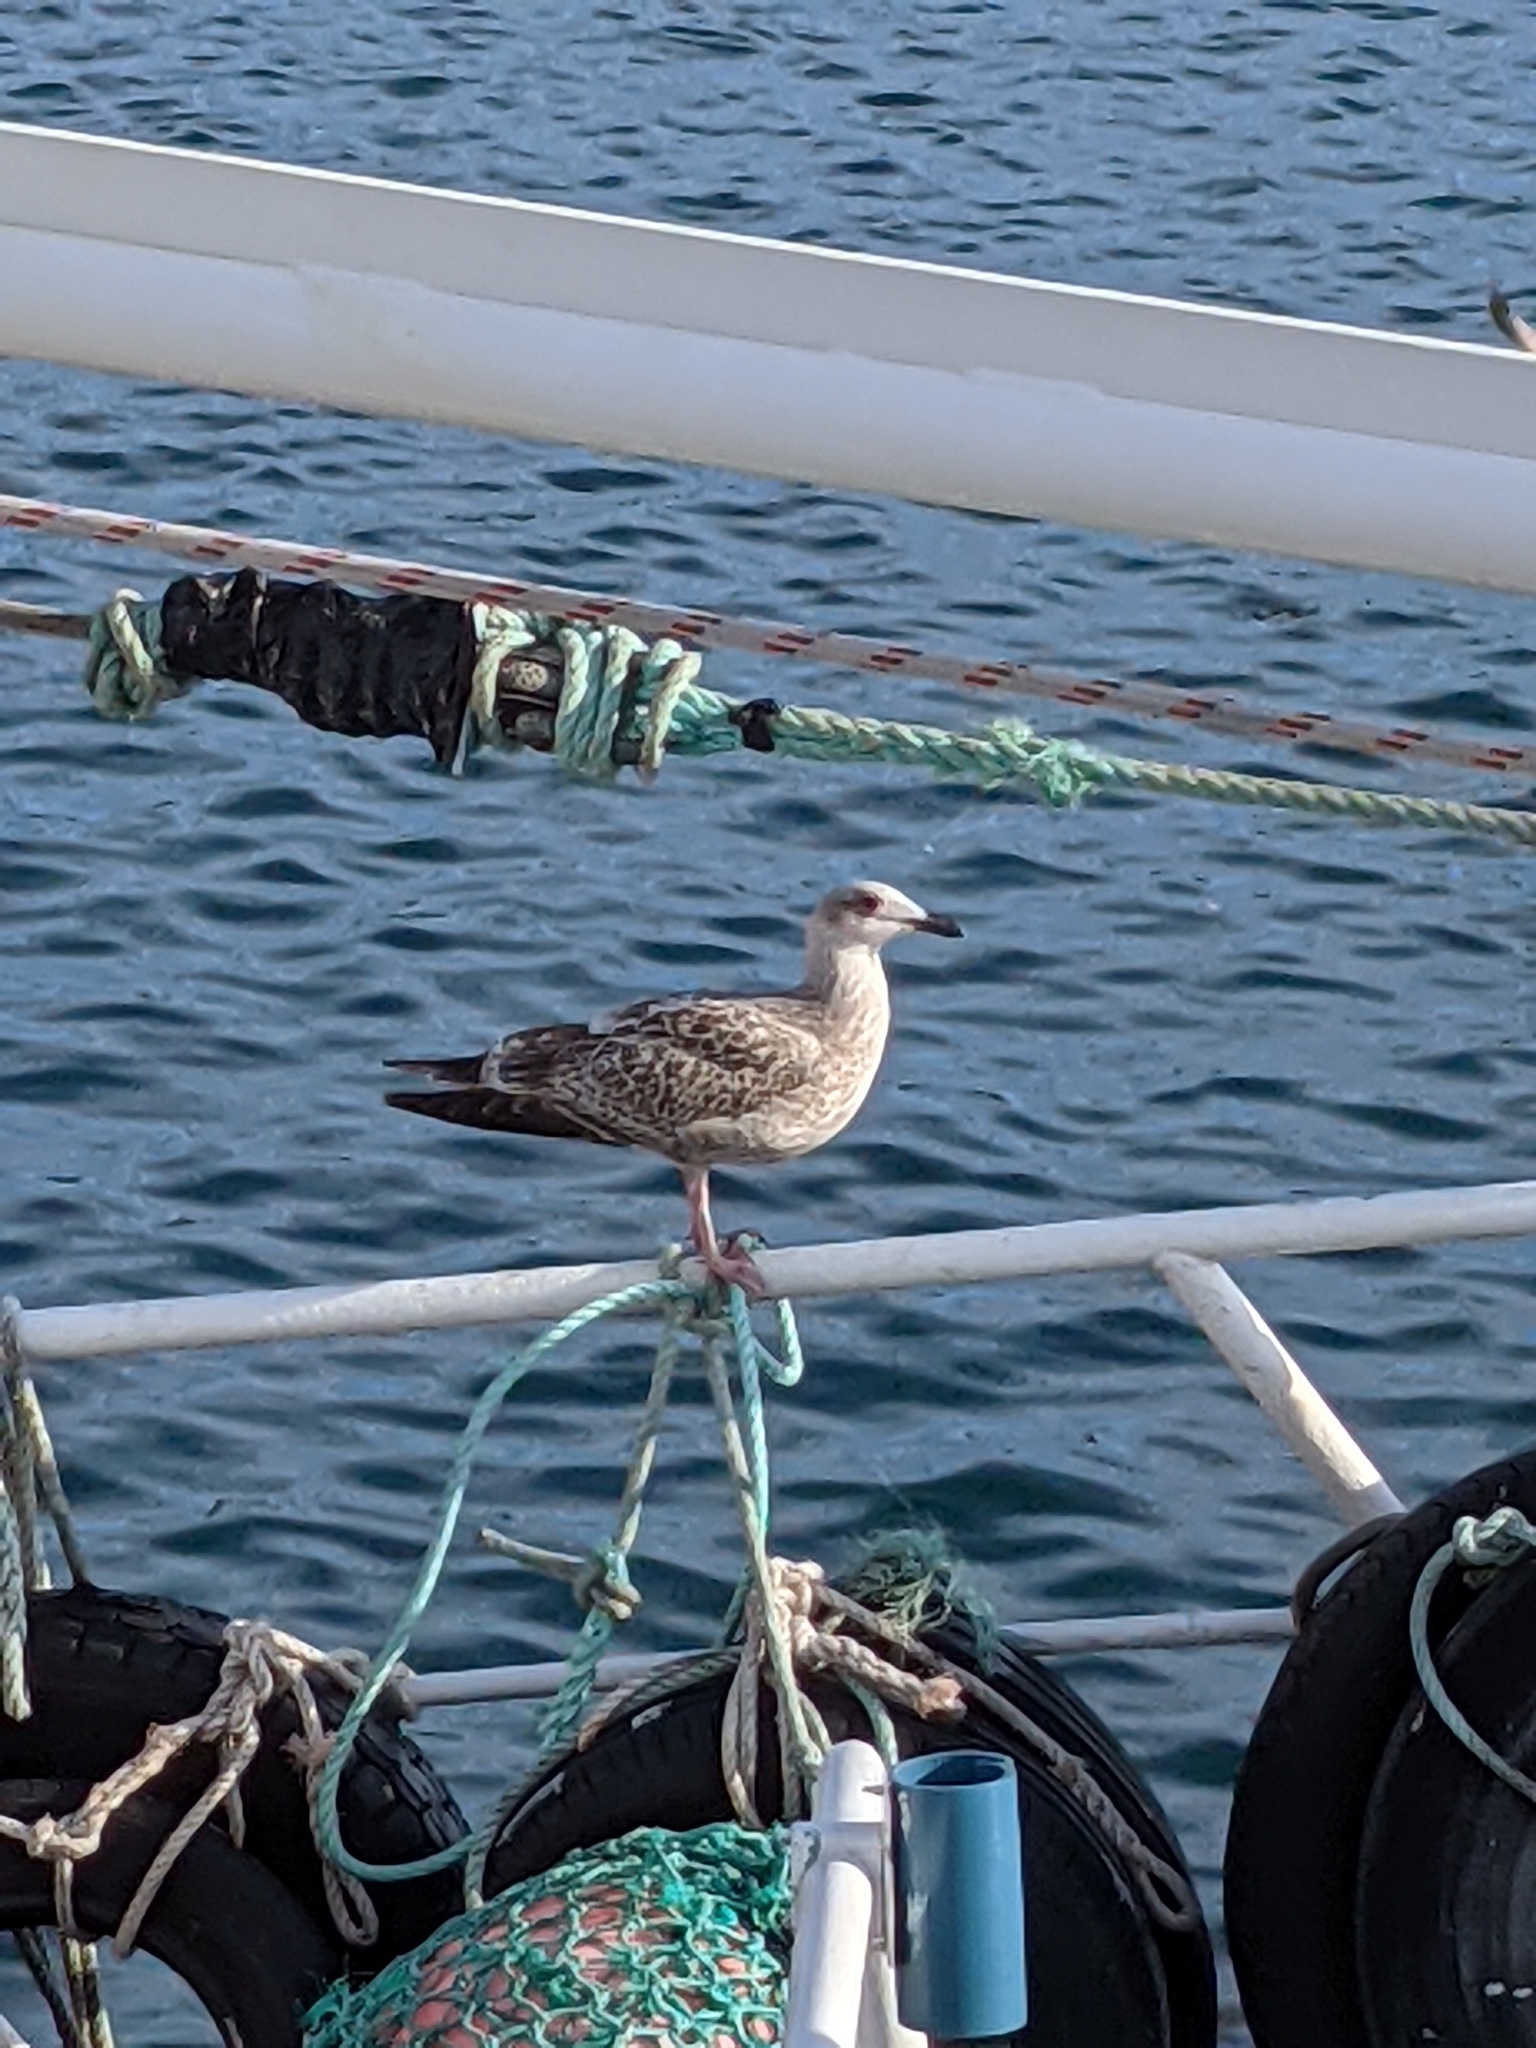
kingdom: Animalia
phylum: Chordata
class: Aves
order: Charadriiformes
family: Laridae
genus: Larus
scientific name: Larus argentatus
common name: Herring gull
